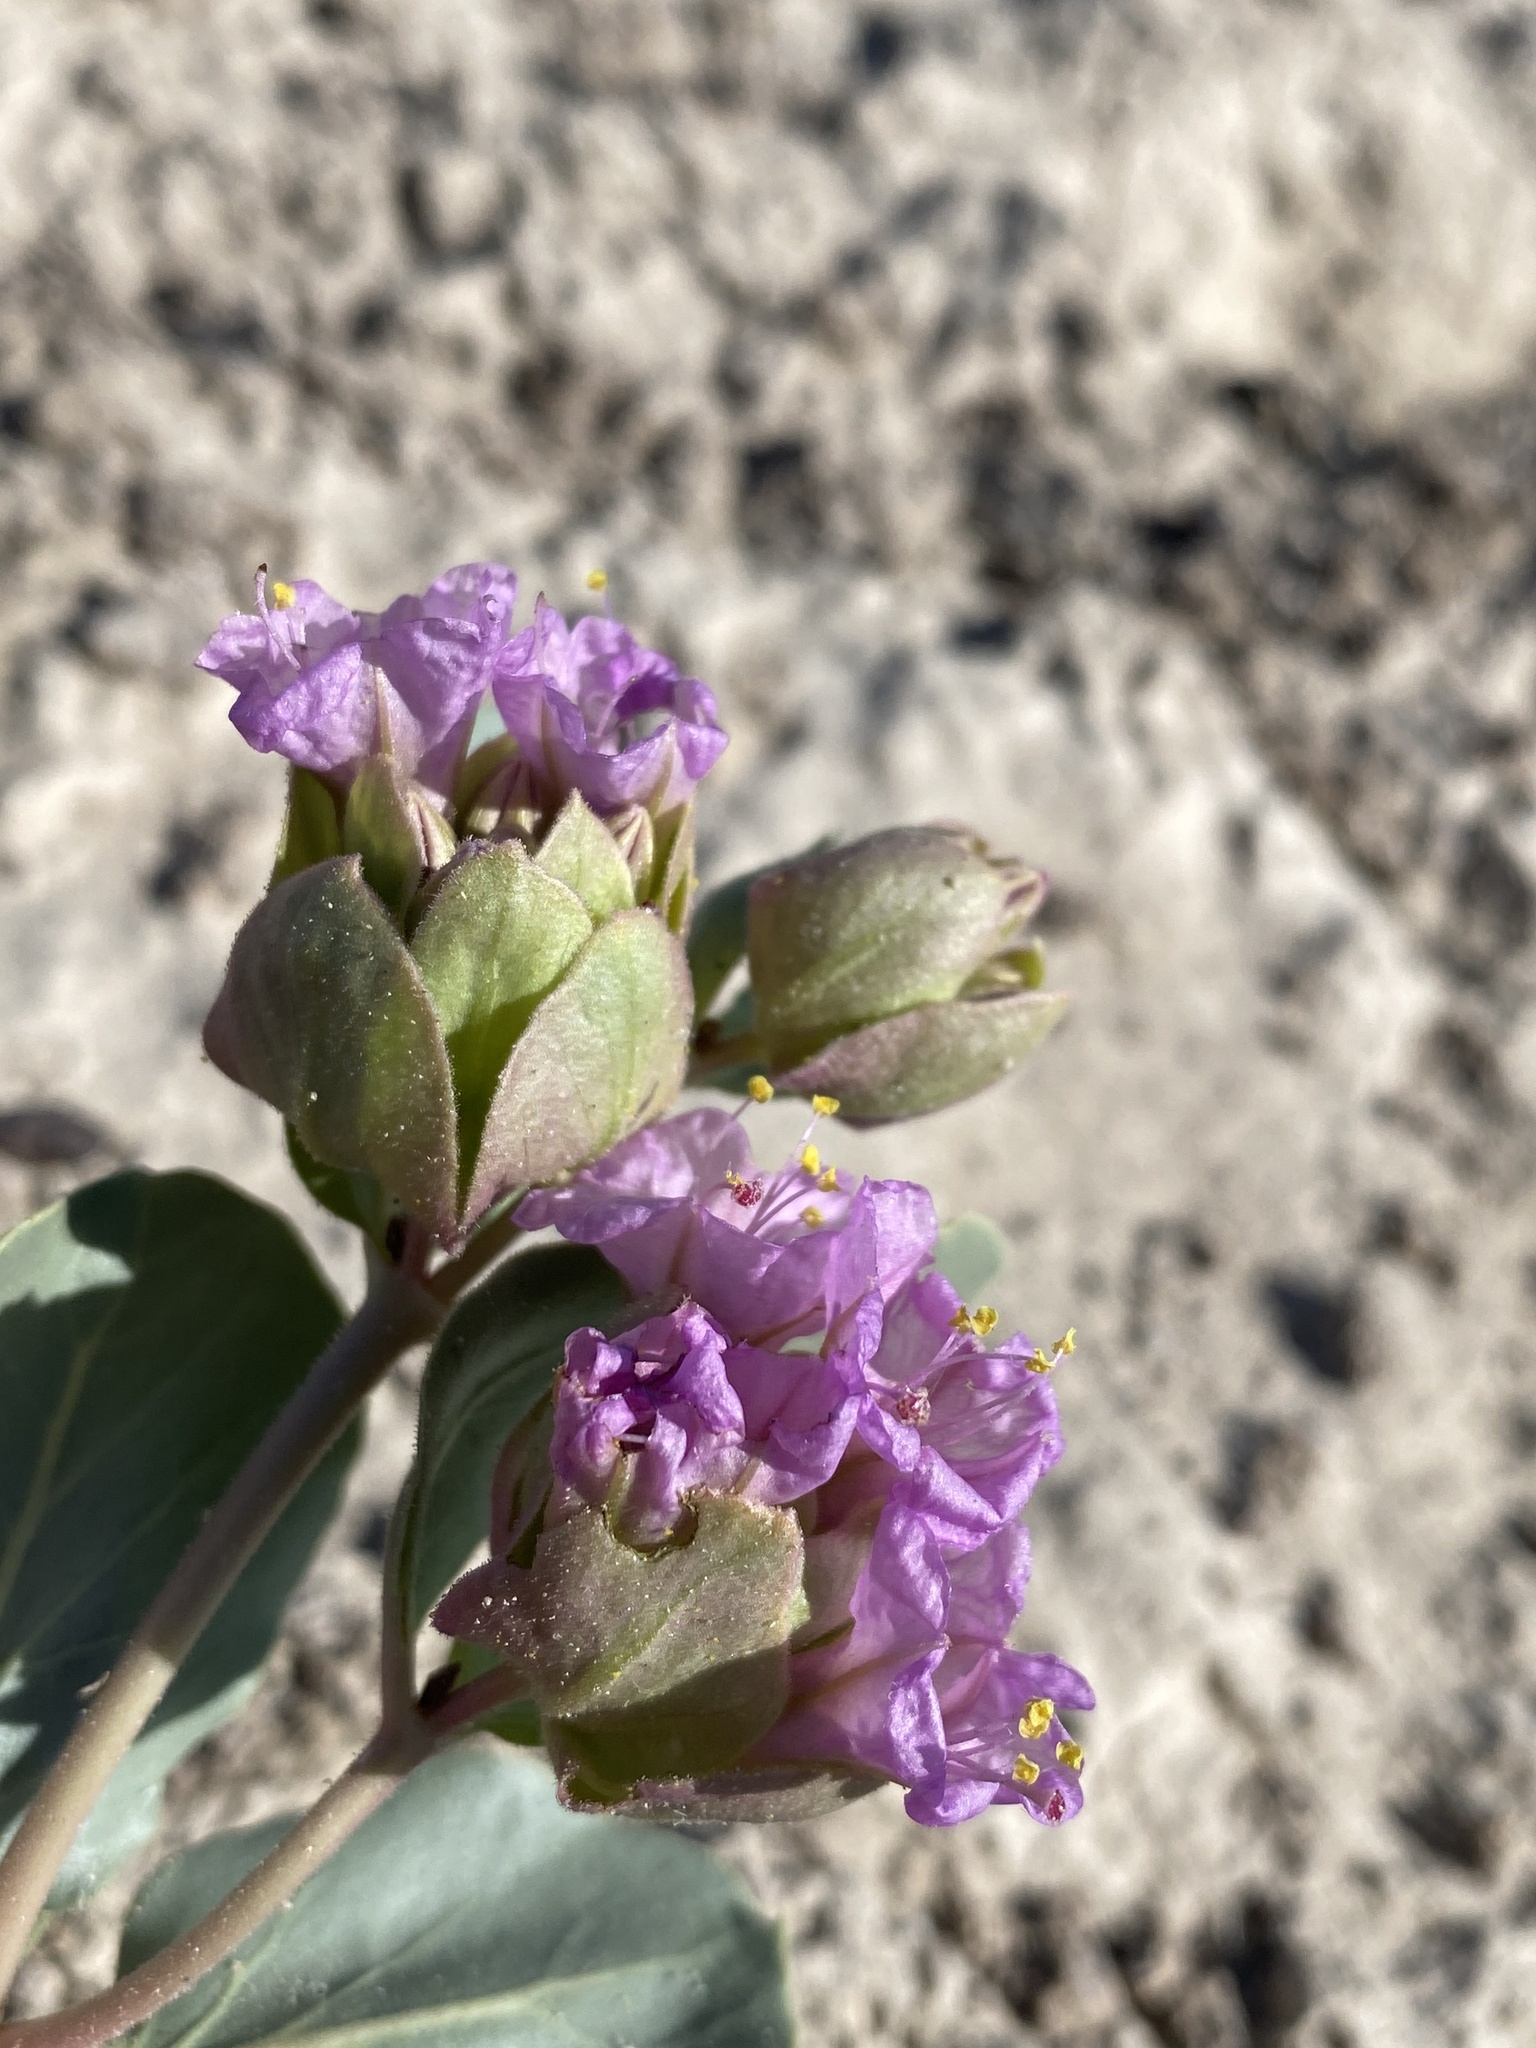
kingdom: Plantae
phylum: Tracheophyta
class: Magnoliopsida
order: Caryophyllales
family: Nyctaginaceae
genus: Mirabilis
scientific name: Mirabilis alipes
